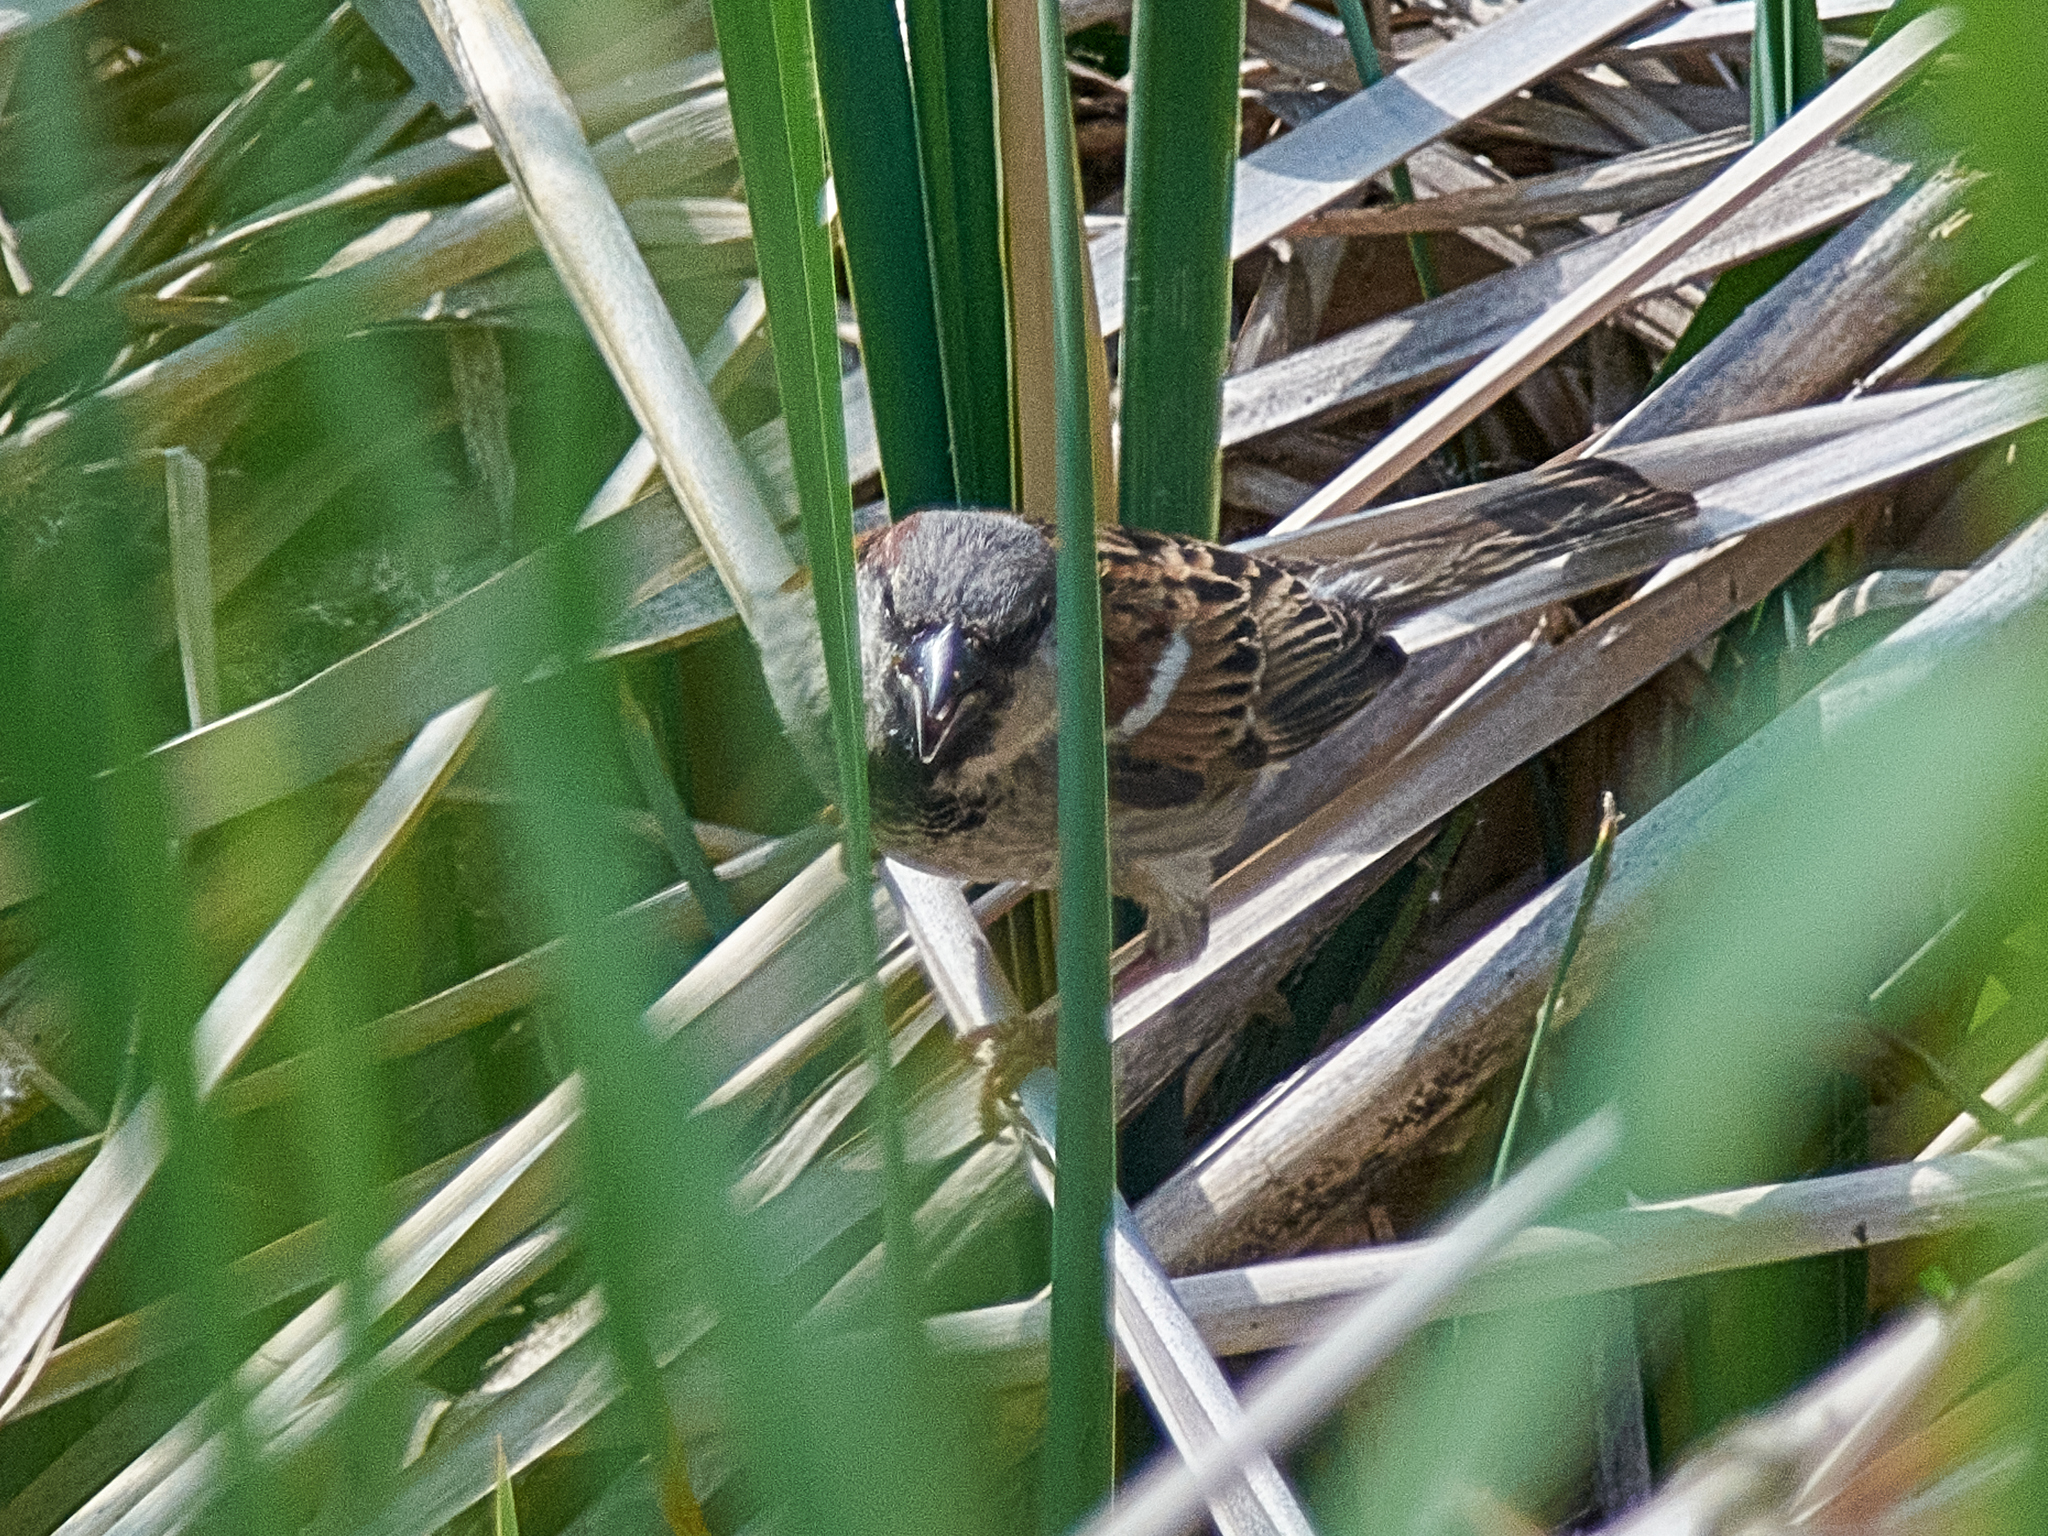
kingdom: Animalia
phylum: Chordata
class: Aves
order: Passeriformes
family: Passeridae
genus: Passer
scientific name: Passer domesticus
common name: House sparrow
